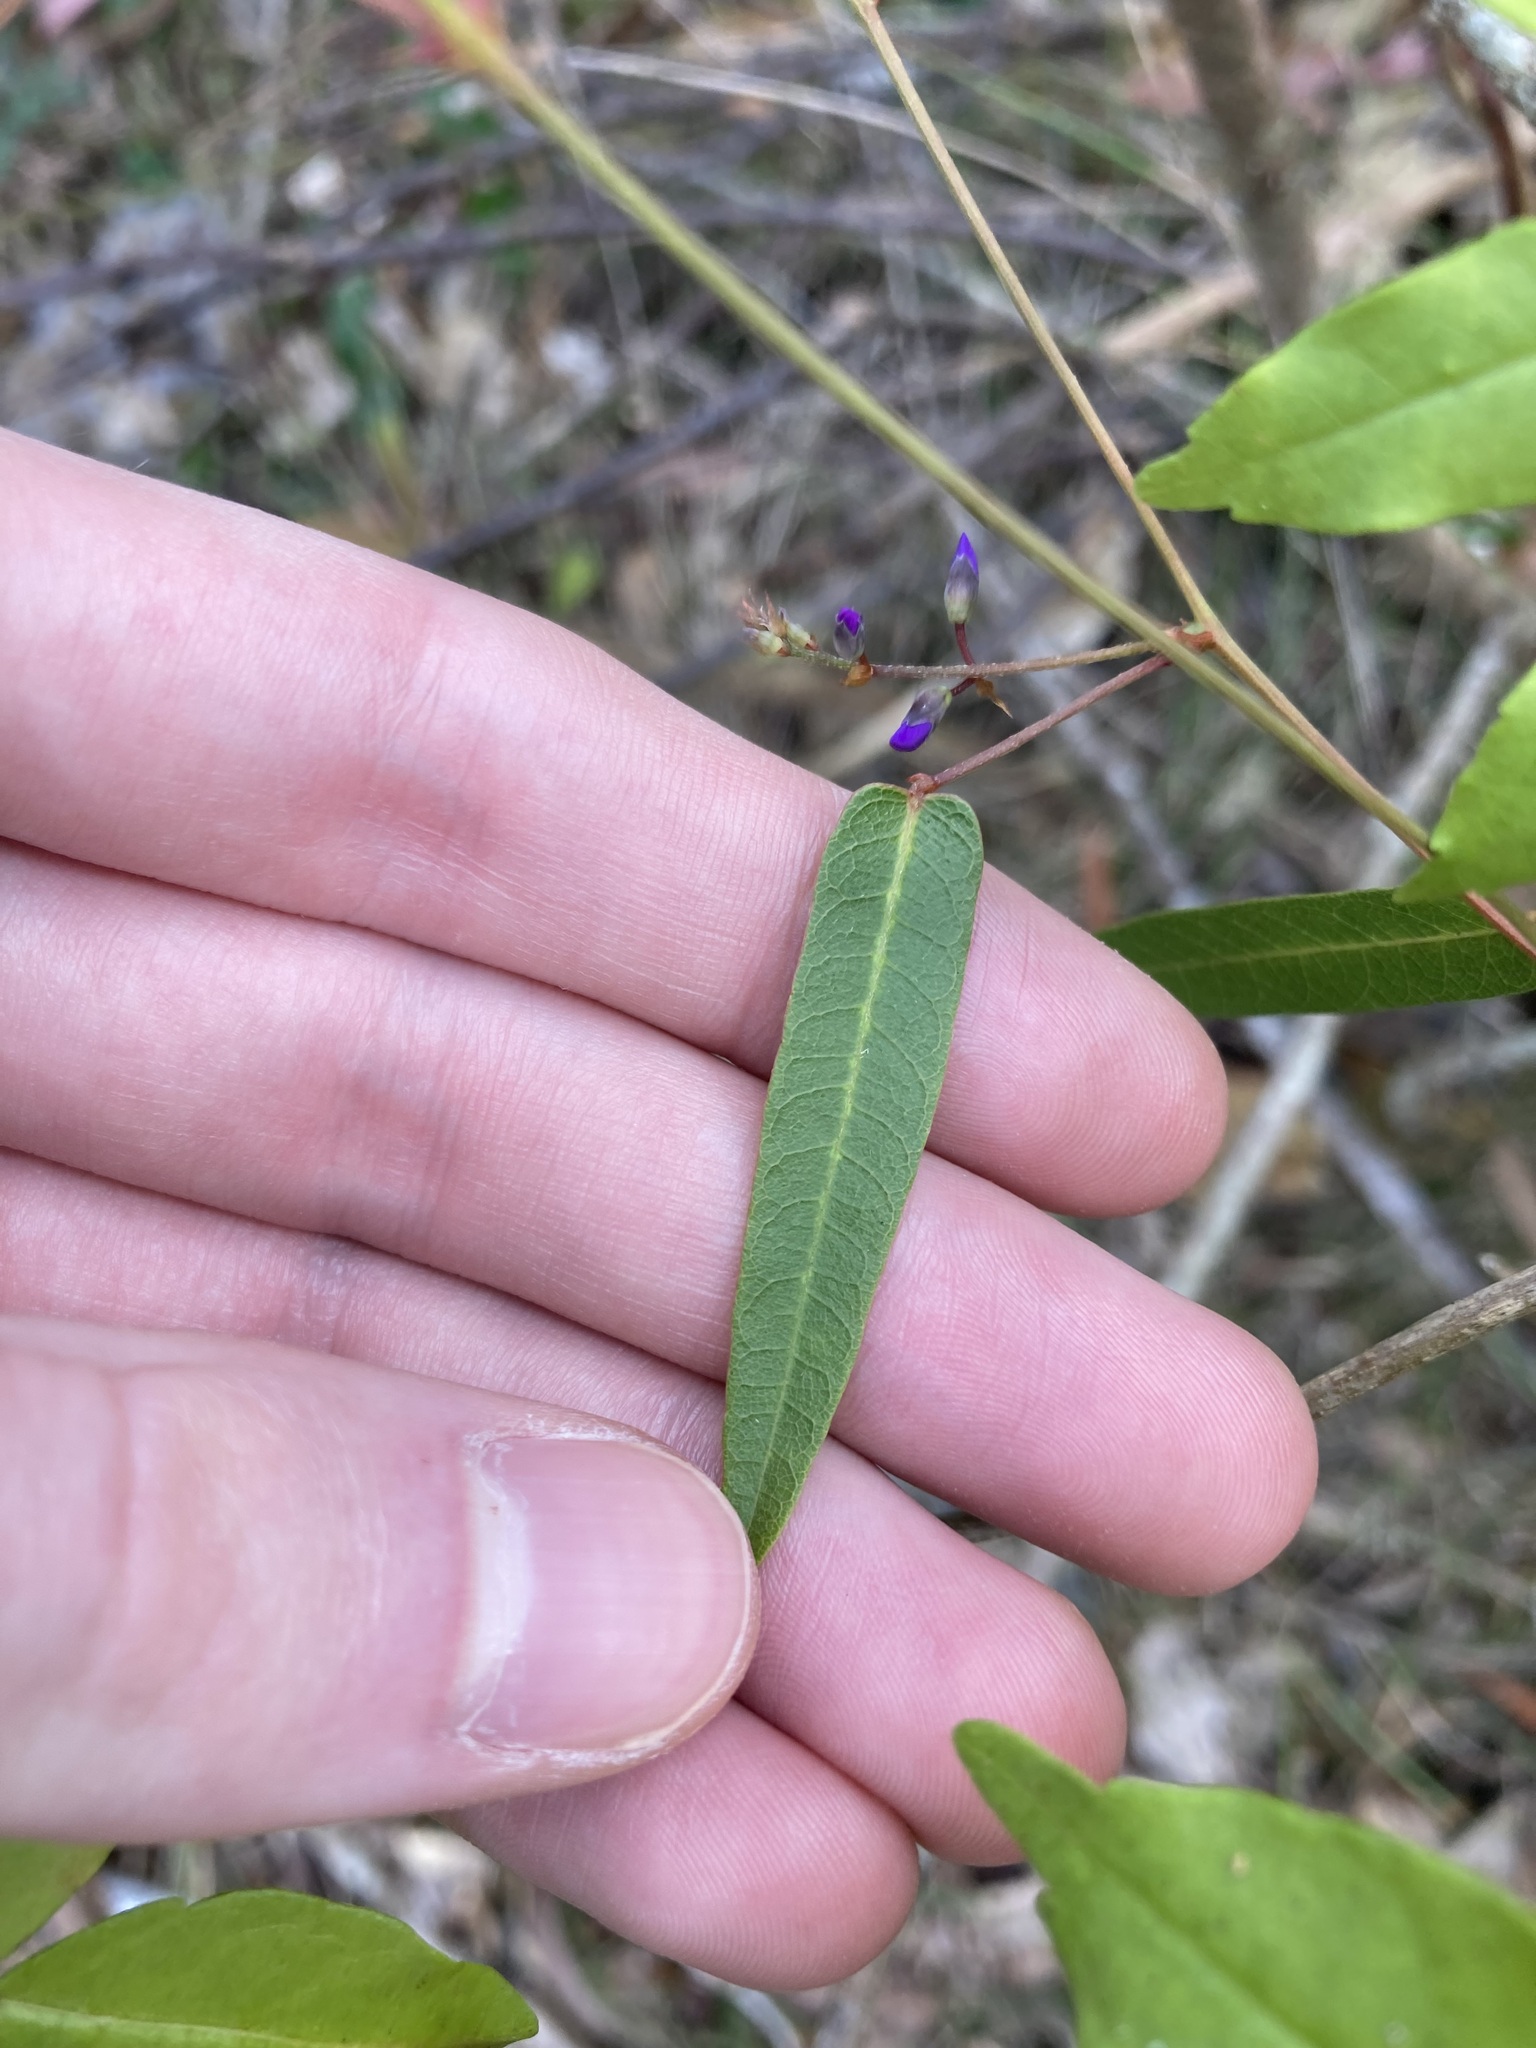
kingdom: Plantae
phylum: Tracheophyta
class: Magnoliopsida
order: Fabales
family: Fabaceae
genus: Hardenbergia
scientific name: Hardenbergia violacea
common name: Coral-pea
